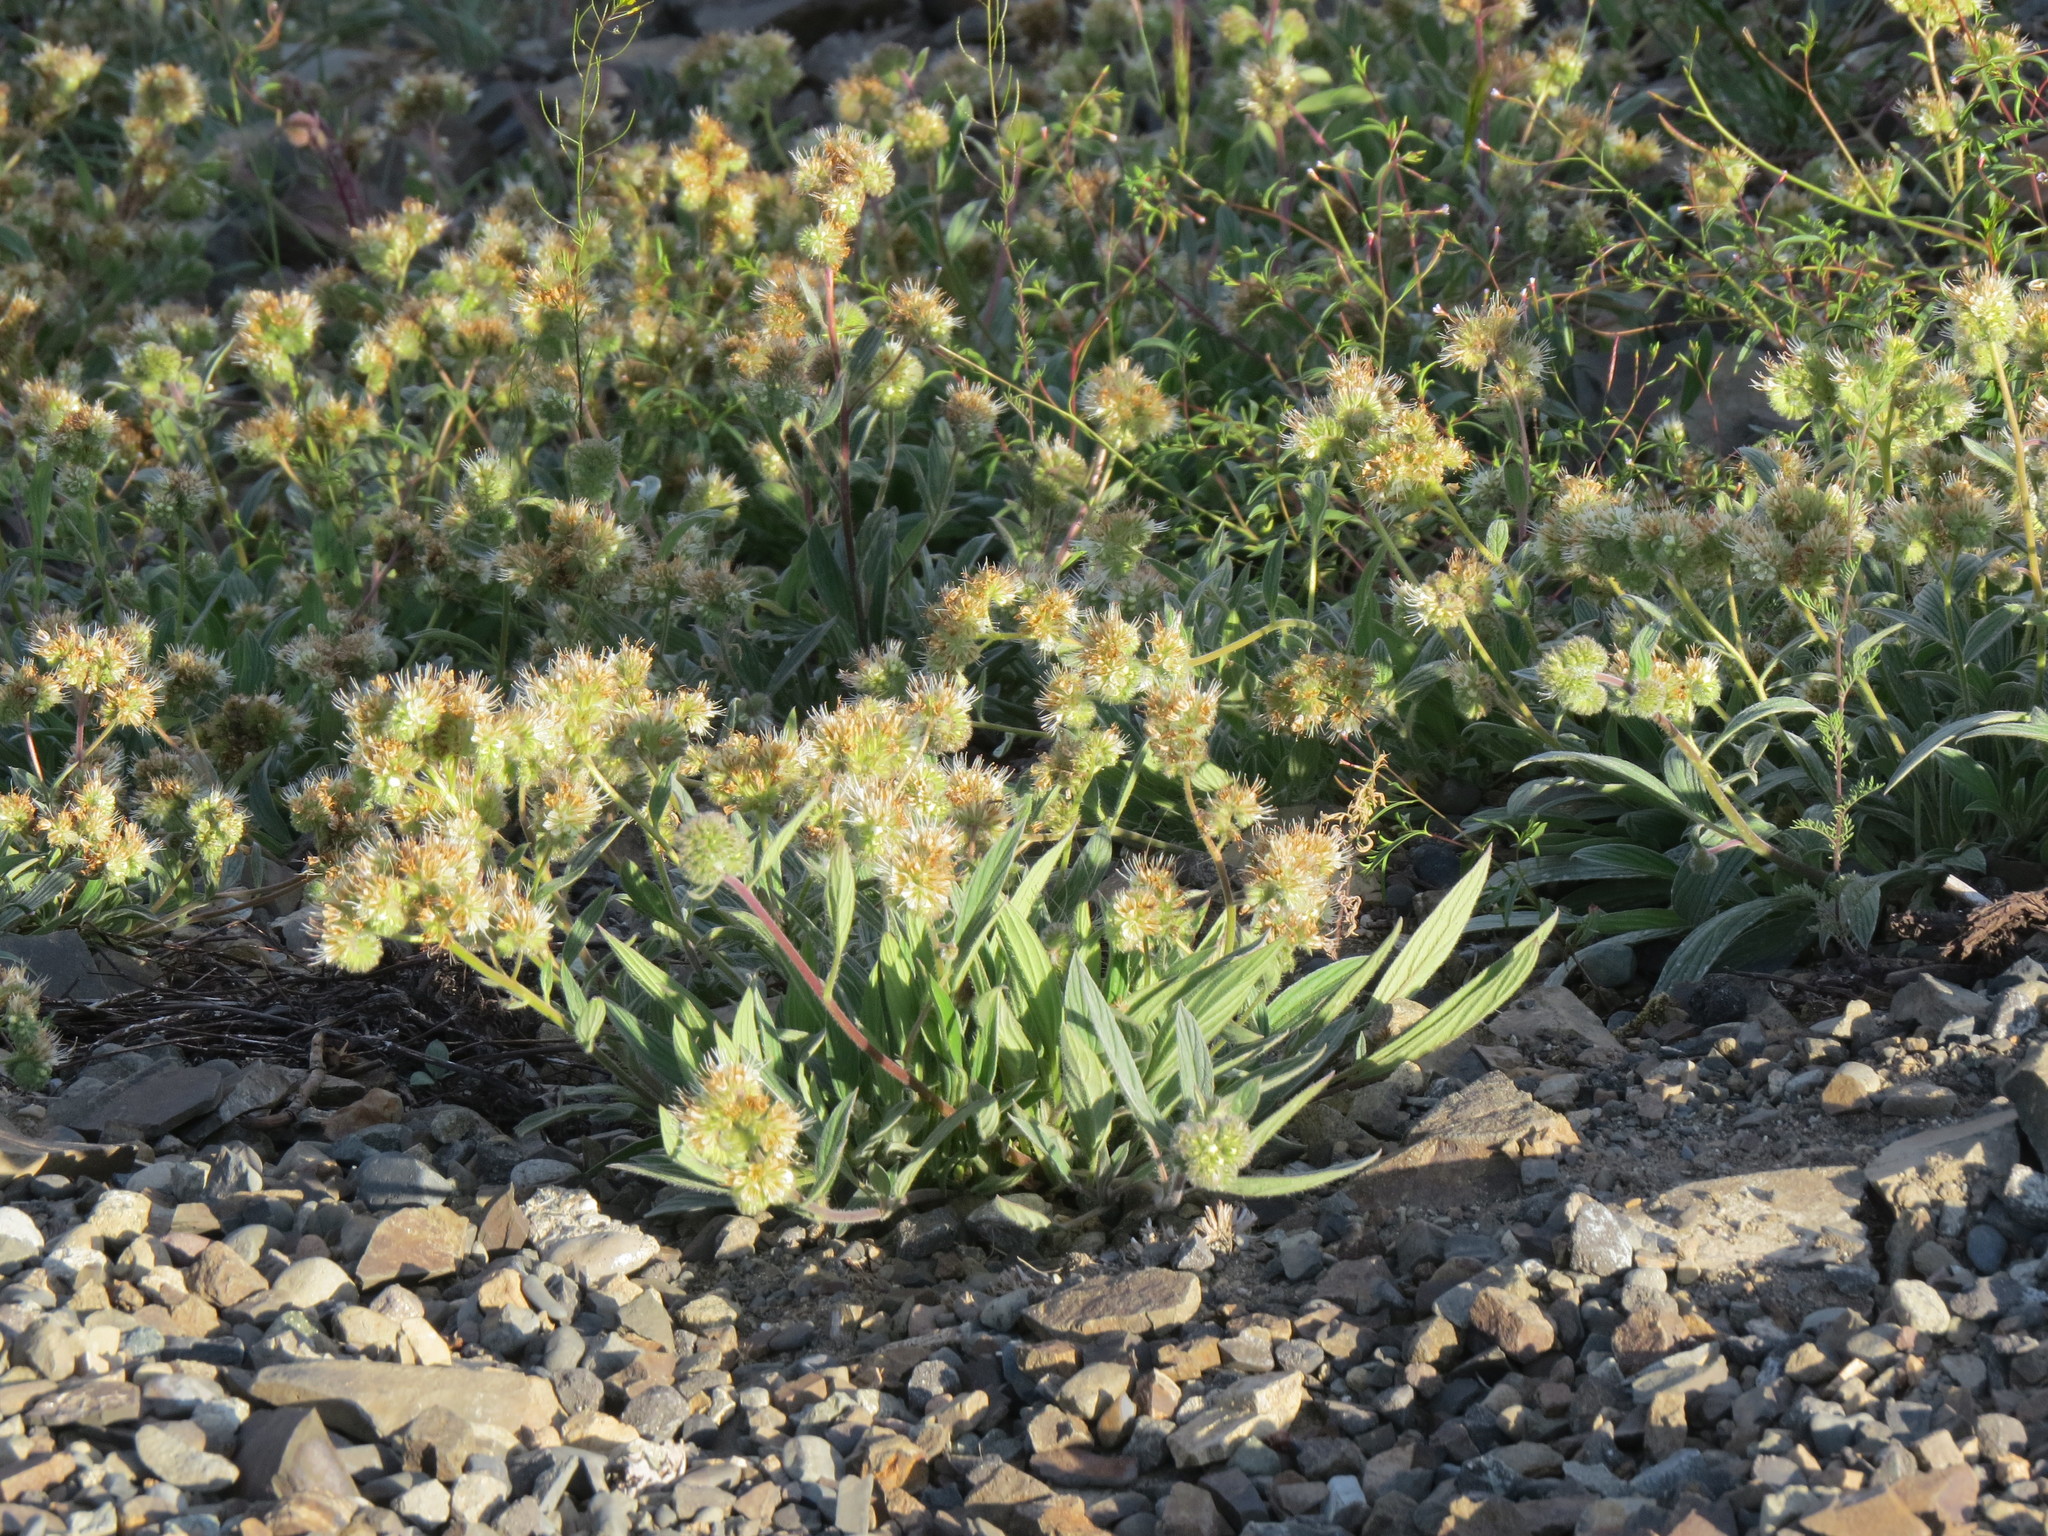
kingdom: Plantae
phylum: Tracheophyta
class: Magnoliopsida
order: Boraginales
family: Hydrophyllaceae
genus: Phacelia
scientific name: Phacelia hastata
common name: Silver-leaved phacelia
